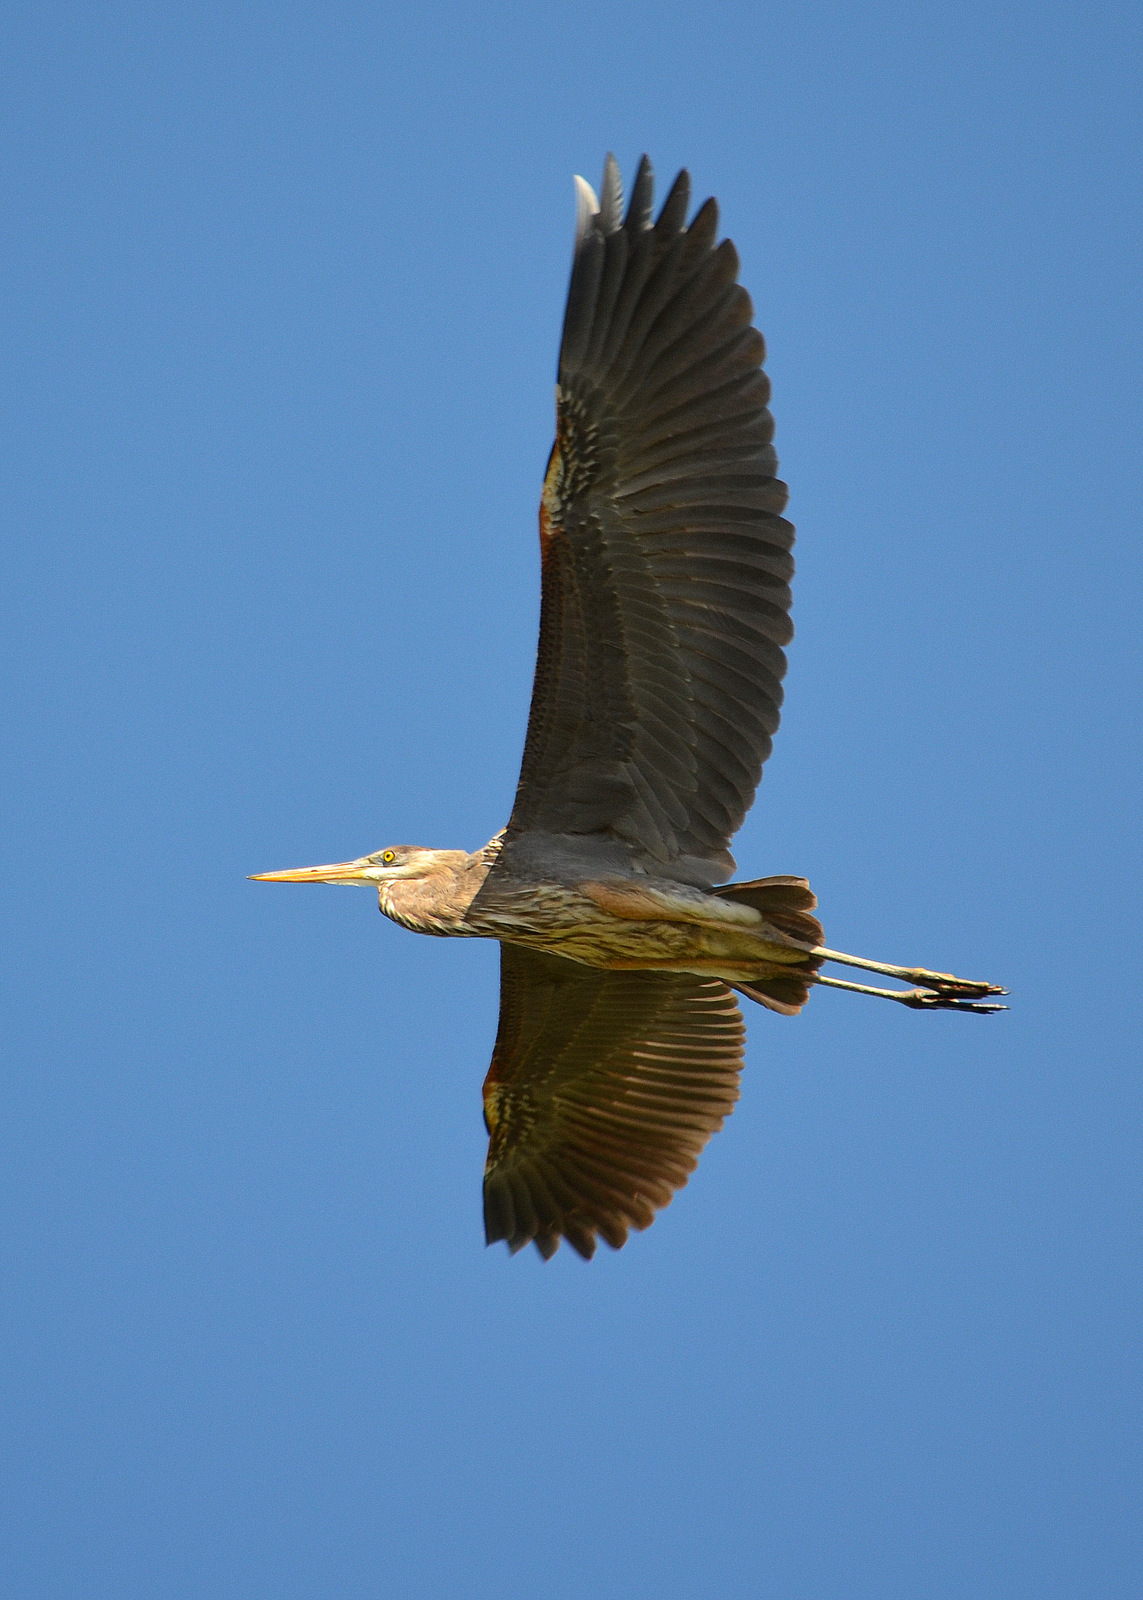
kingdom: Animalia
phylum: Chordata
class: Aves
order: Pelecaniformes
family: Ardeidae
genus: Ardea
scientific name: Ardea herodias
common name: Great blue heron
